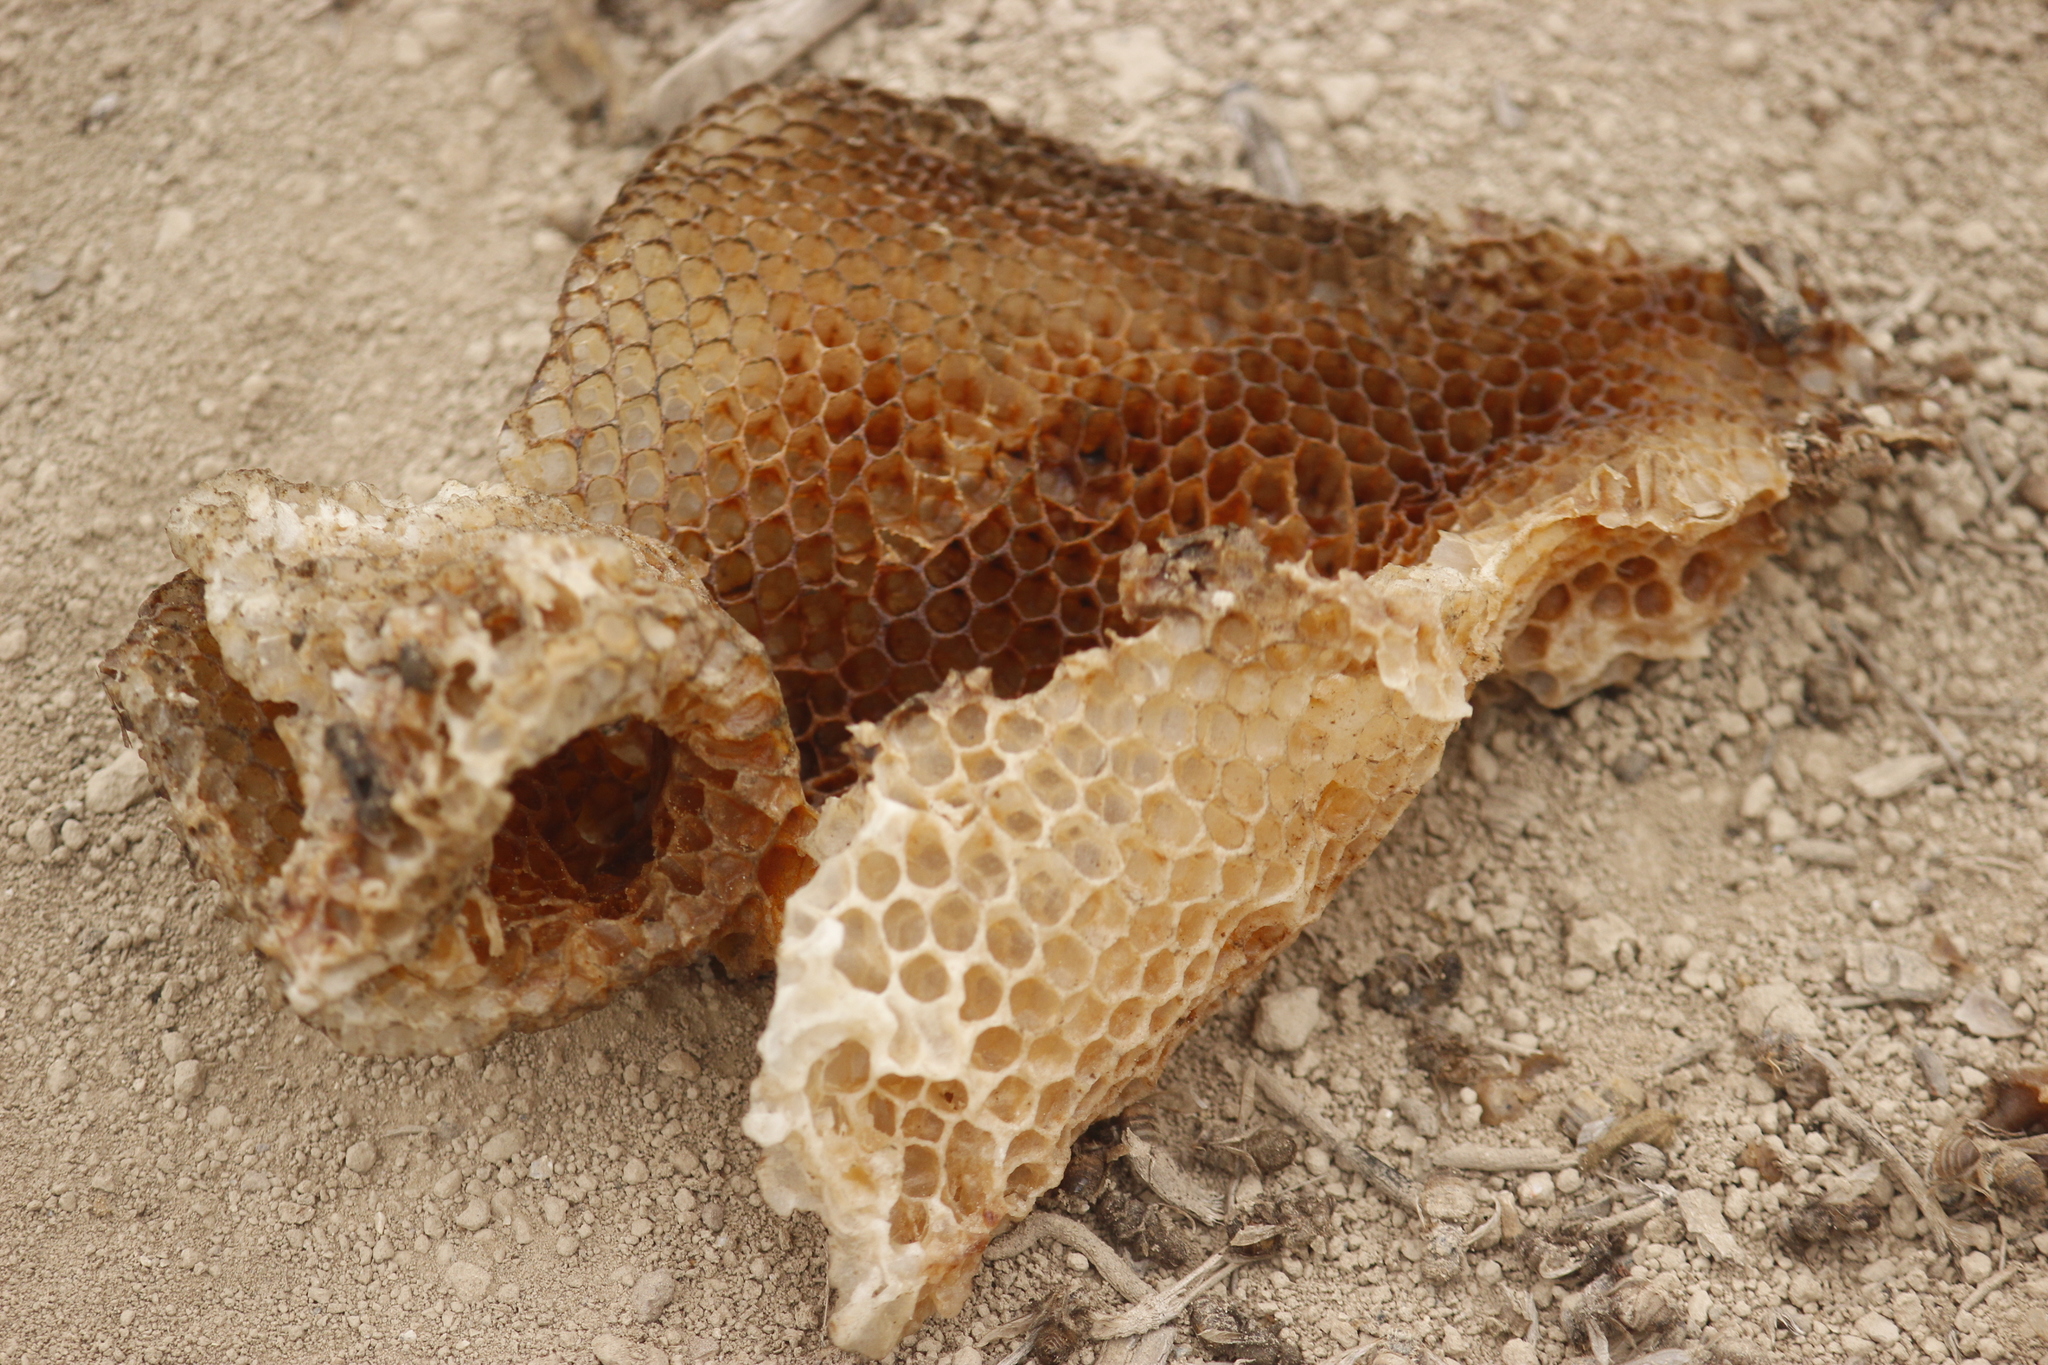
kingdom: Animalia
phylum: Arthropoda
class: Insecta
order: Hymenoptera
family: Apidae
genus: Apis
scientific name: Apis mellifera
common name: Honey bee
